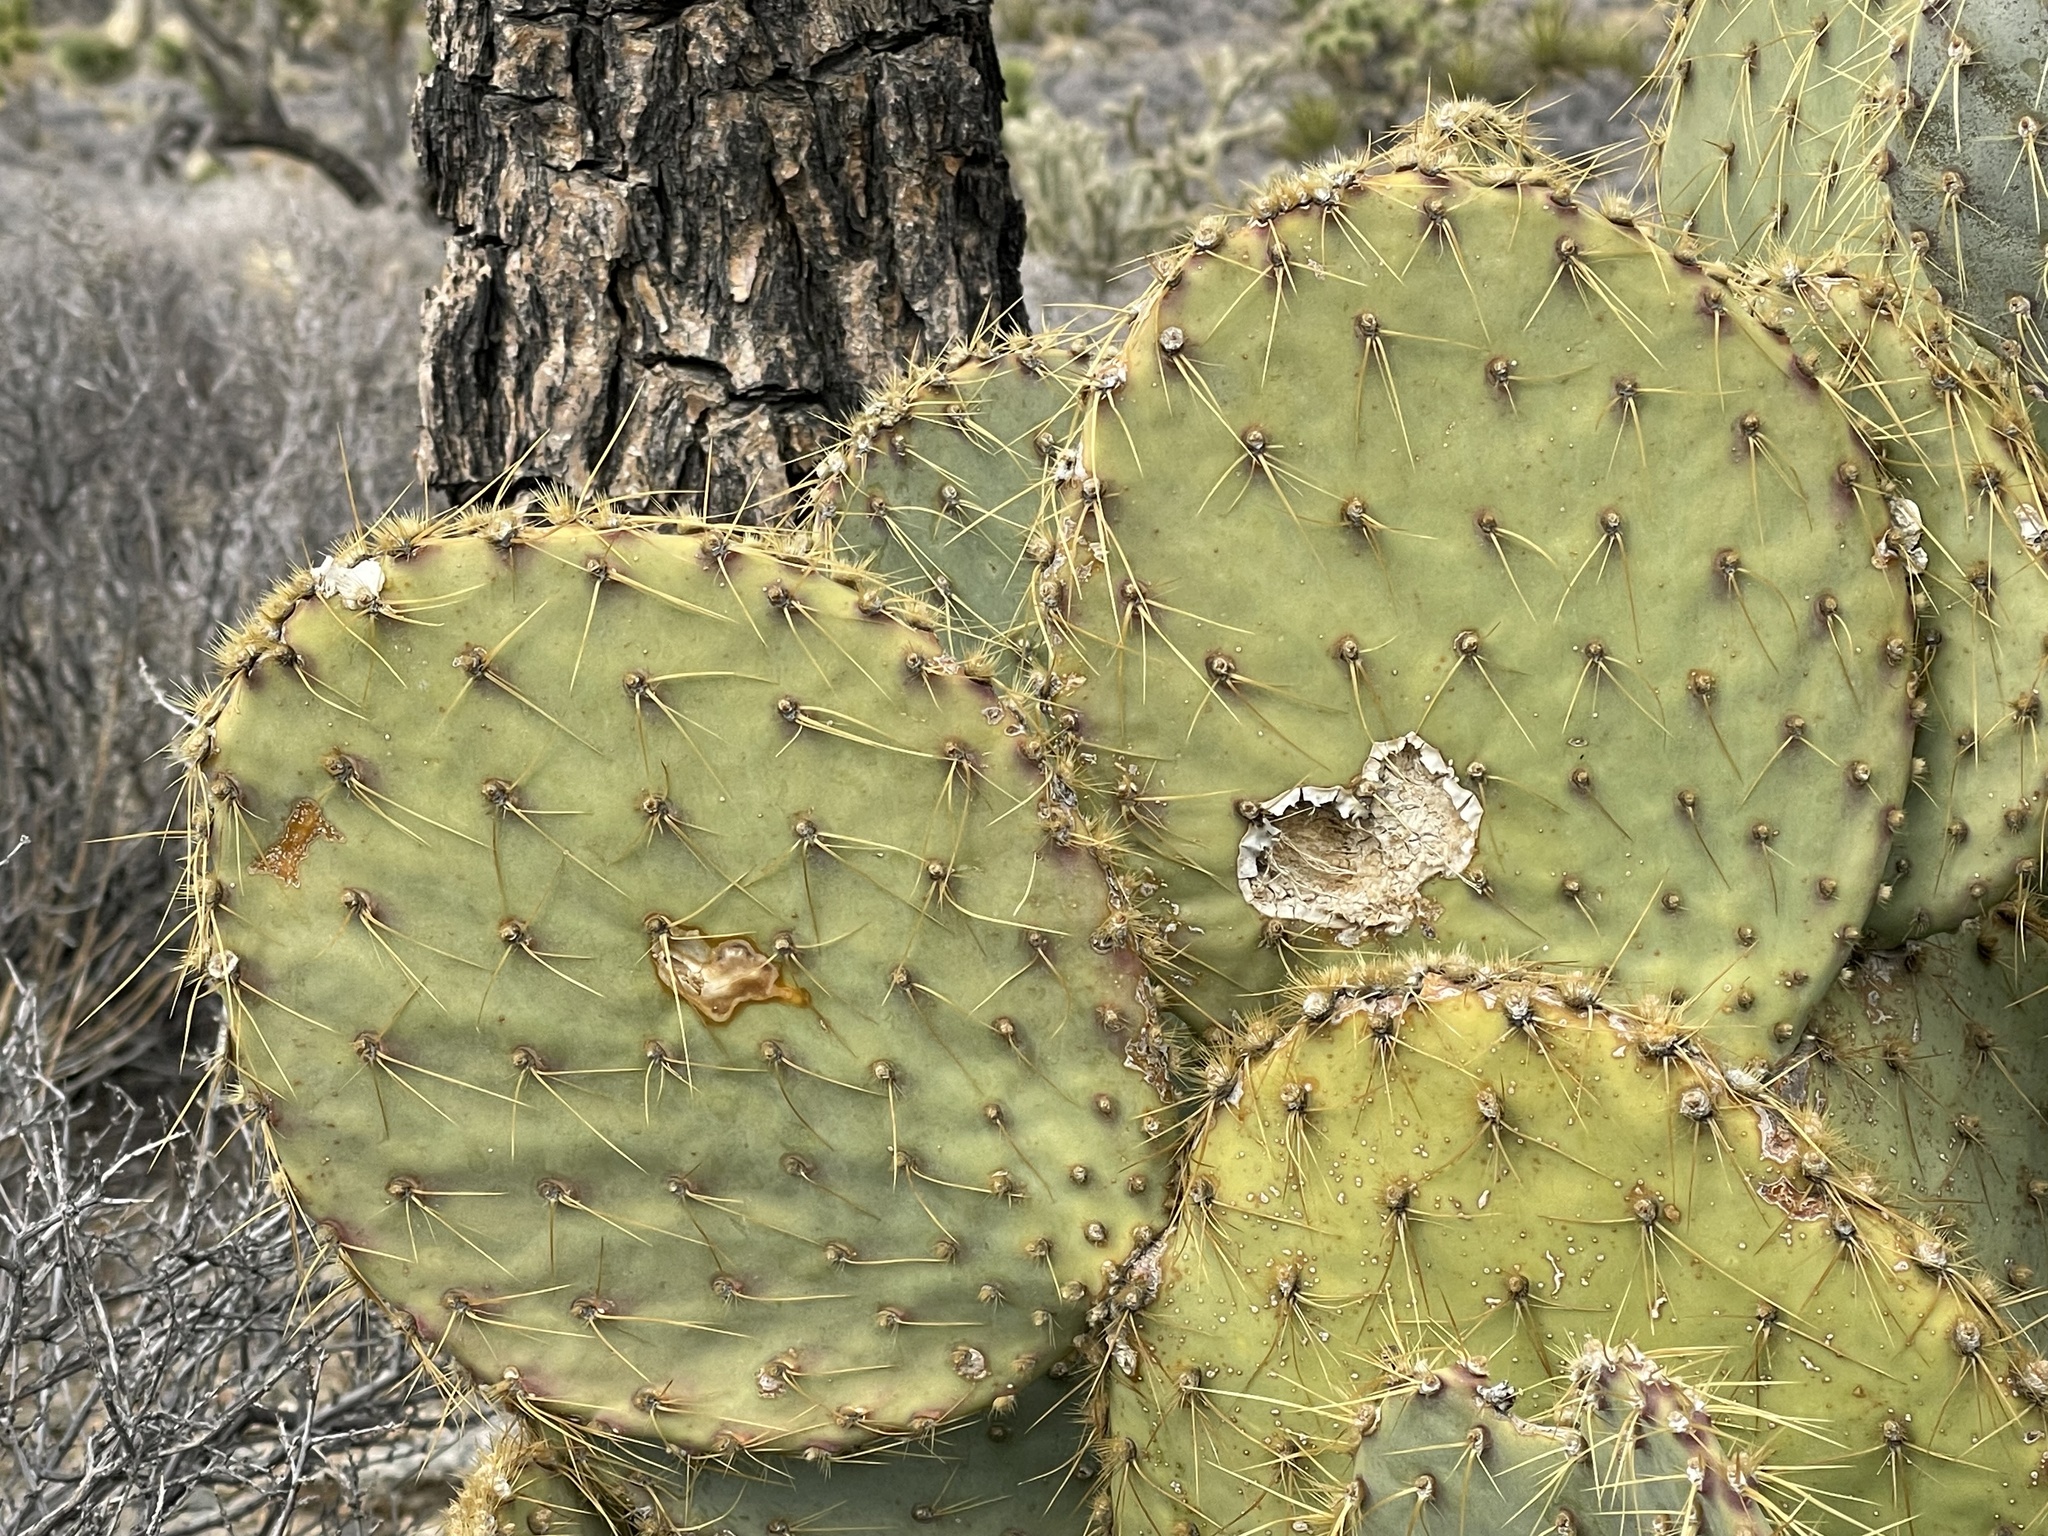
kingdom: Plantae
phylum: Tracheophyta
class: Magnoliopsida
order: Caryophyllales
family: Cactaceae
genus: Opuntia
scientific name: Opuntia chlorotica
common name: Dollar-joint prickly-pear
